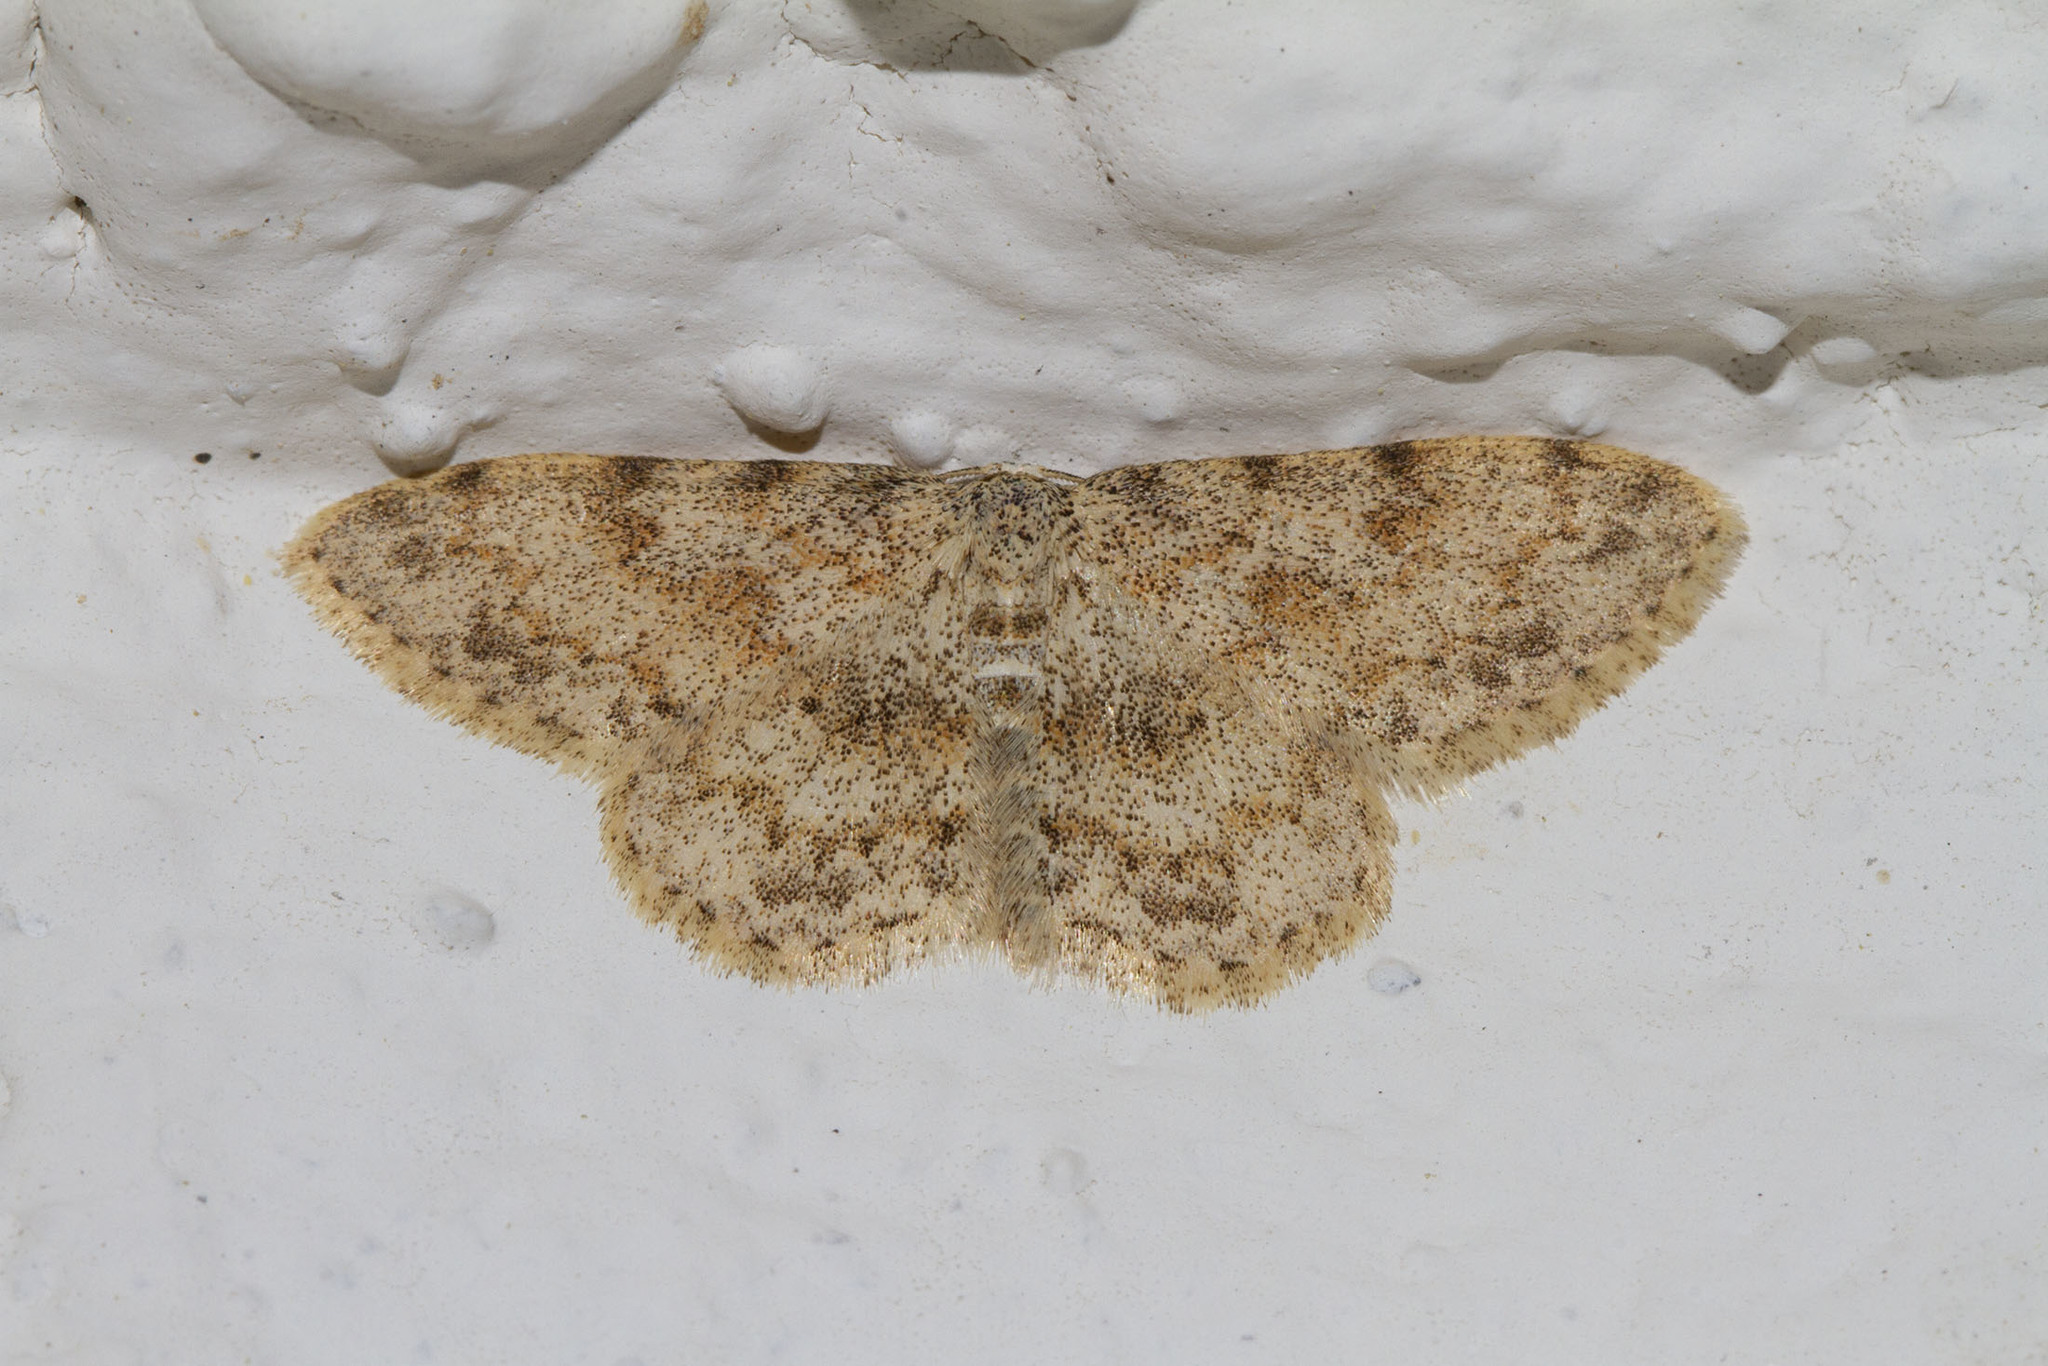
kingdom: Animalia
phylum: Arthropoda
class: Insecta
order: Lepidoptera
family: Geometridae
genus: Scopula
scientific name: Scopula luridata
